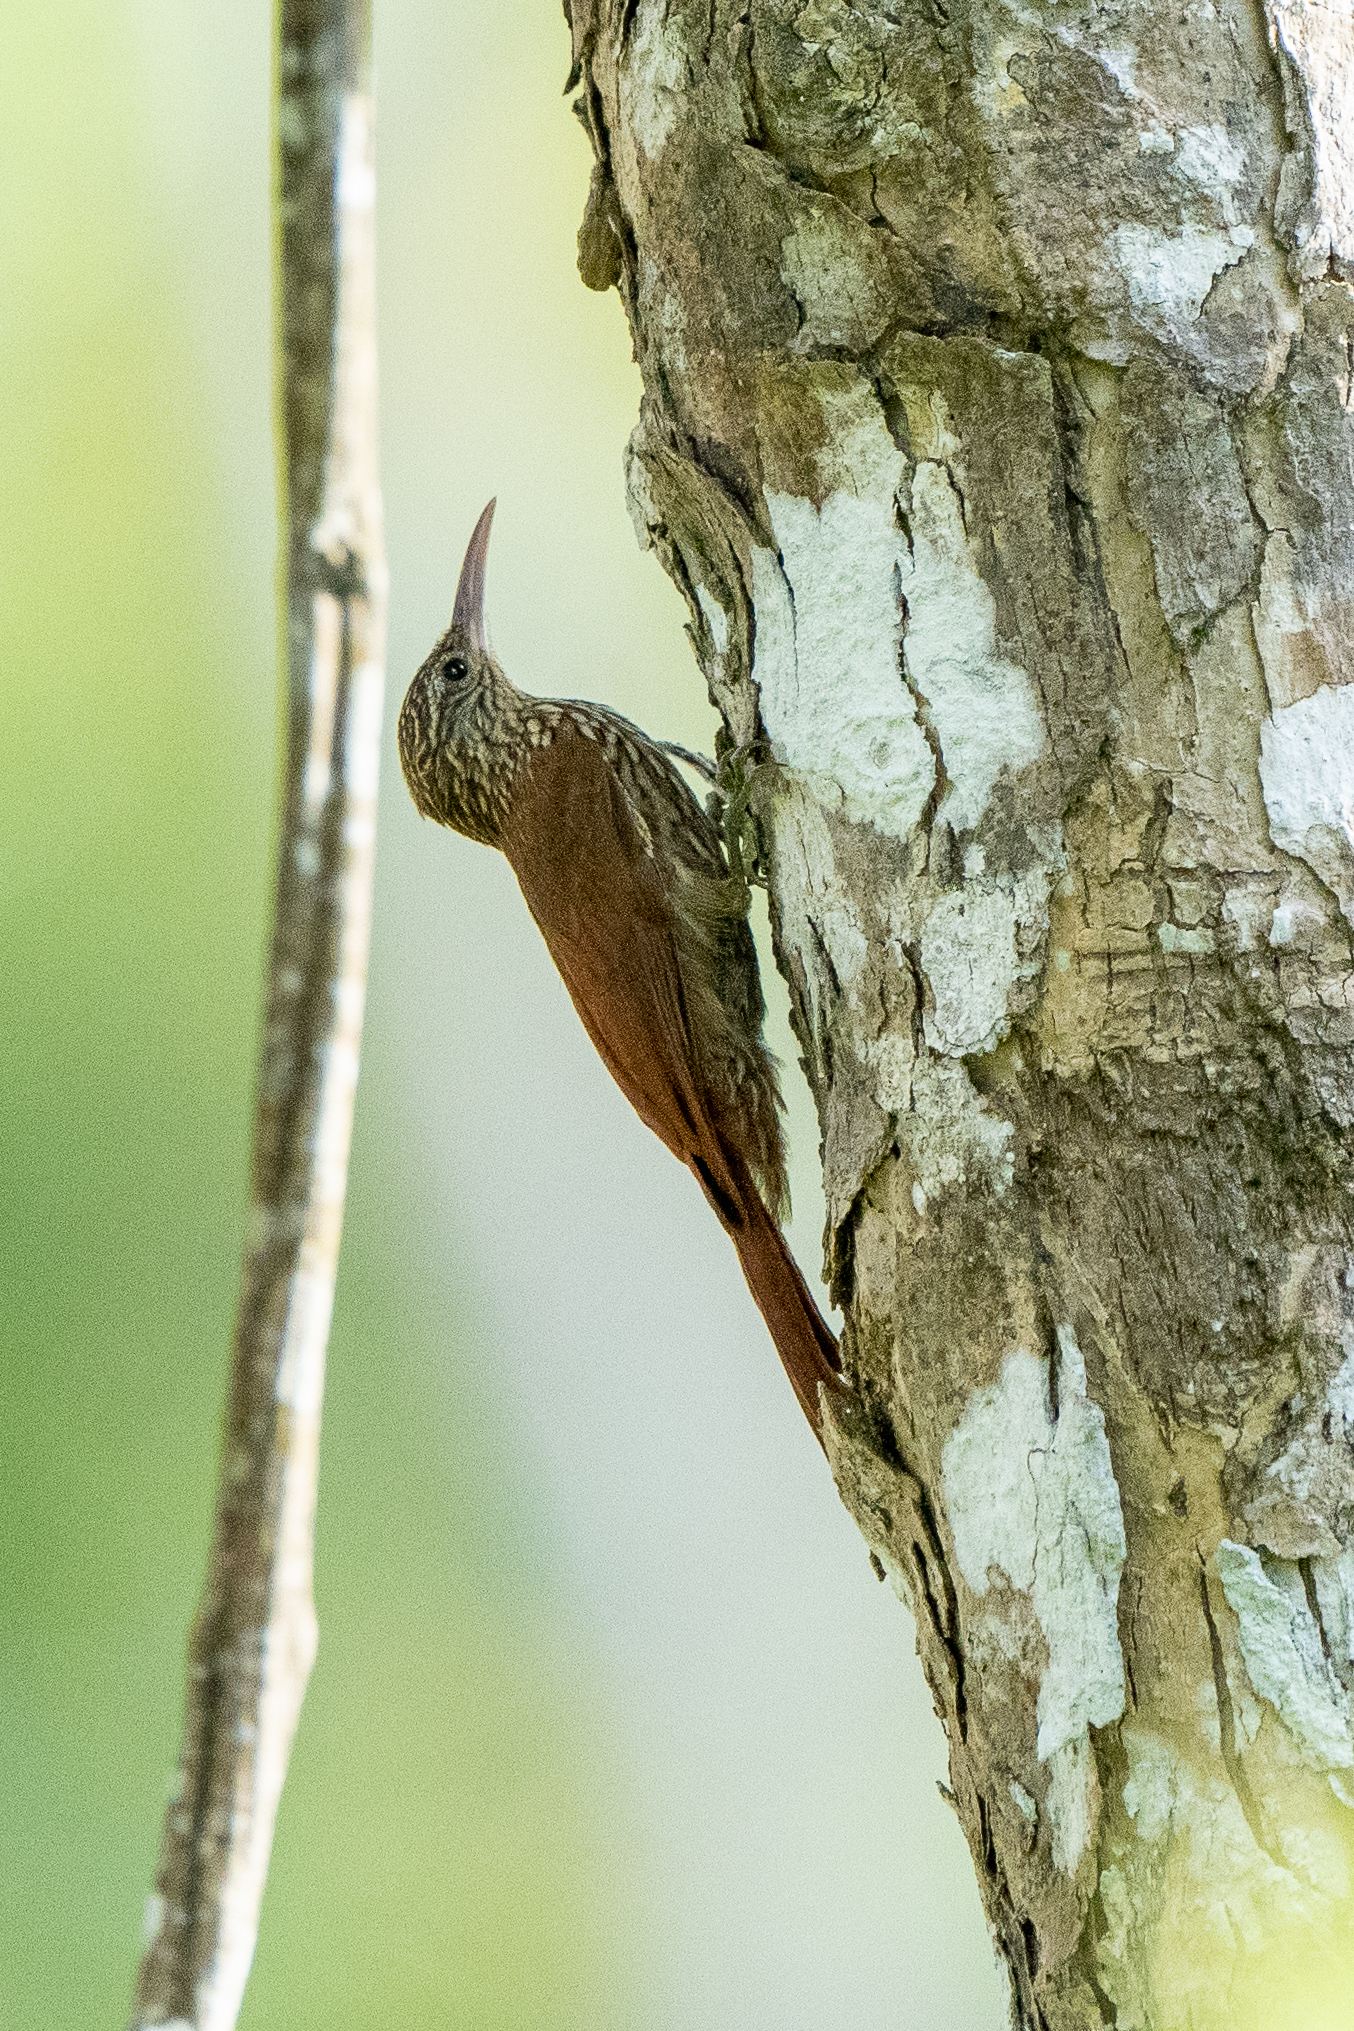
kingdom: Animalia
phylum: Chordata
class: Aves
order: Passeriformes
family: Furnariidae
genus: Lepidocolaptes
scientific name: Lepidocolaptes souleyetii
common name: Streak-headed woodcreeper
